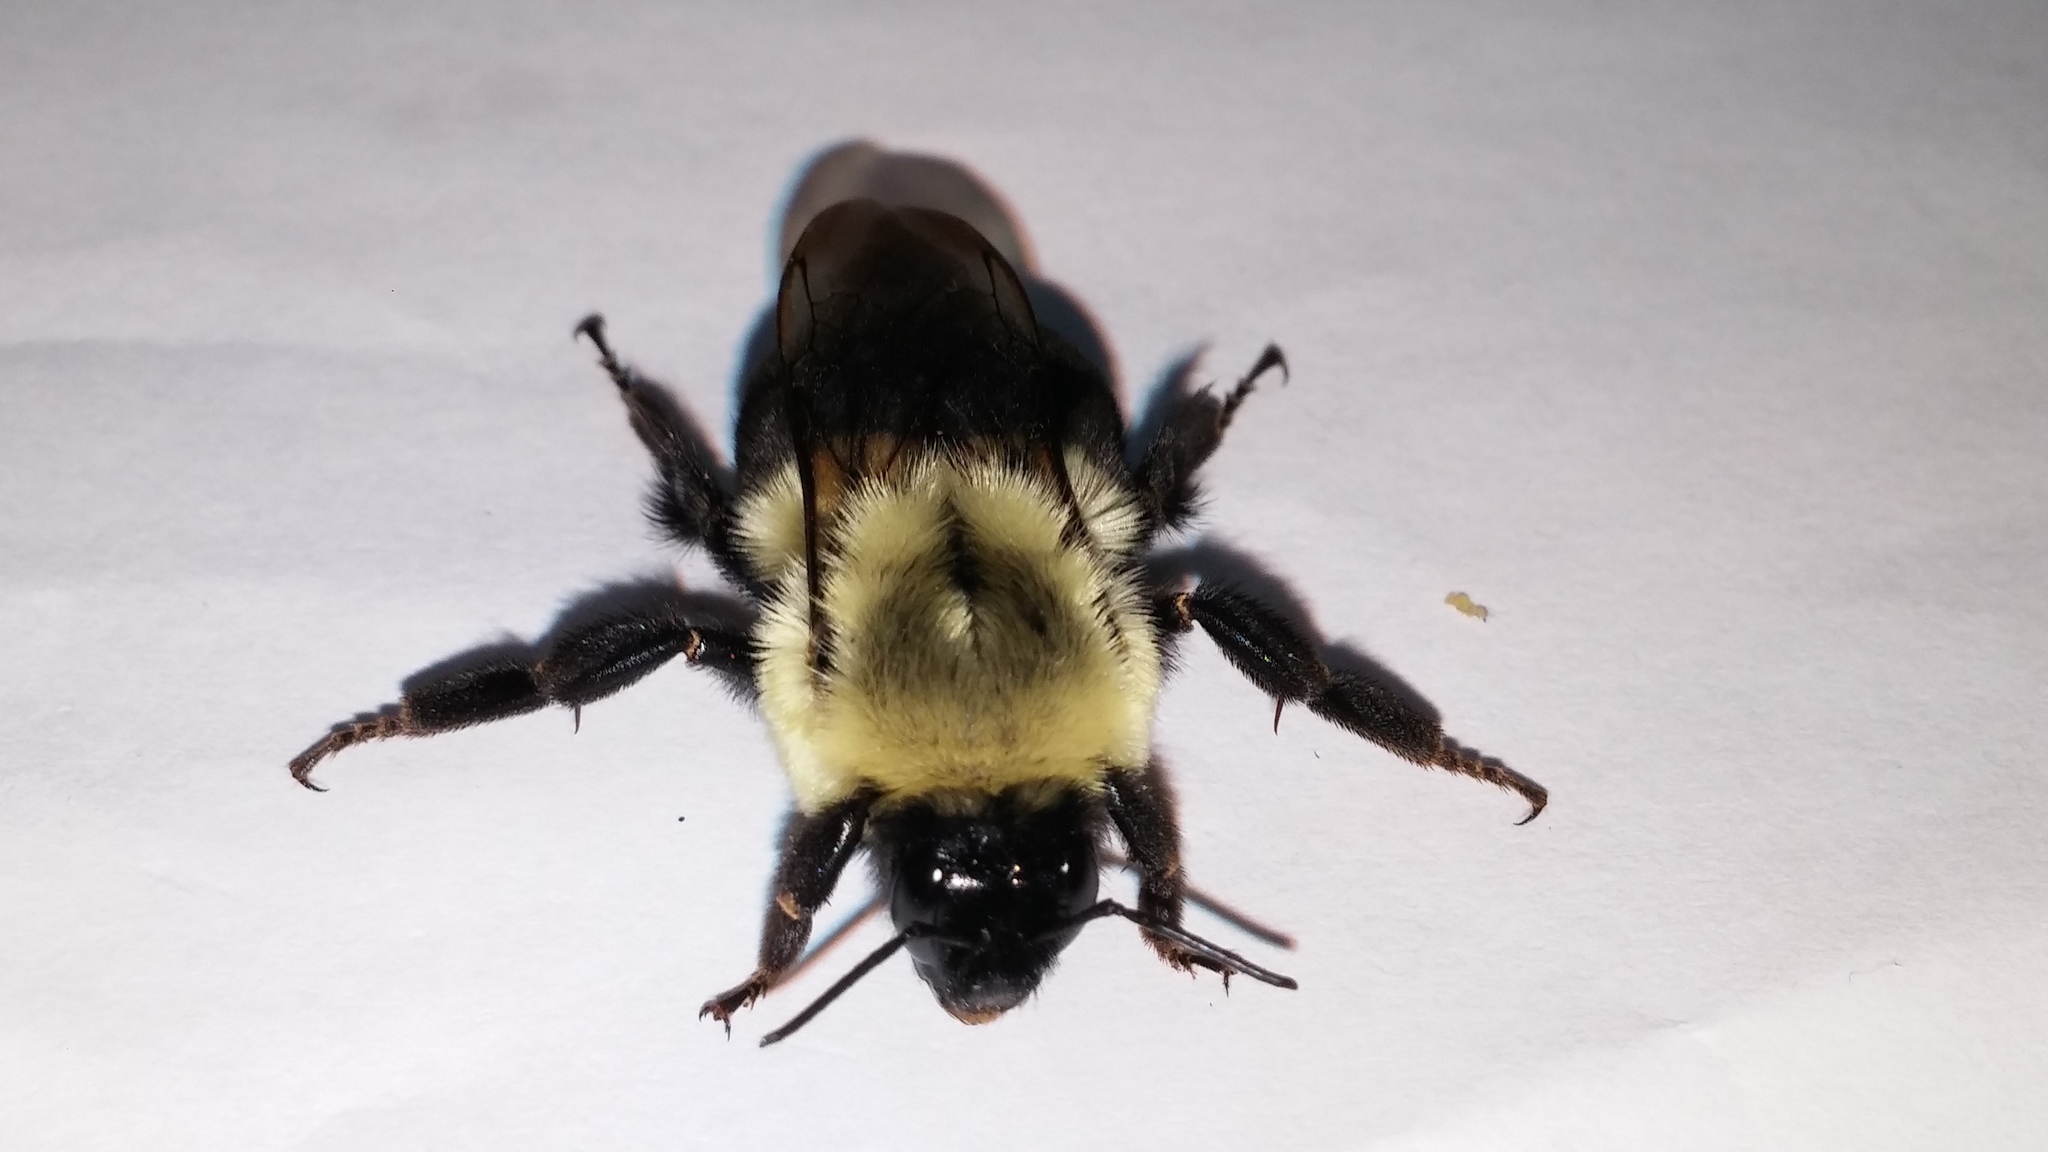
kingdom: Animalia
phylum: Arthropoda
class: Insecta
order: Hymenoptera
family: Apidae
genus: Bombus
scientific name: Bombus impatiens
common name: Common eastern bumble bee
